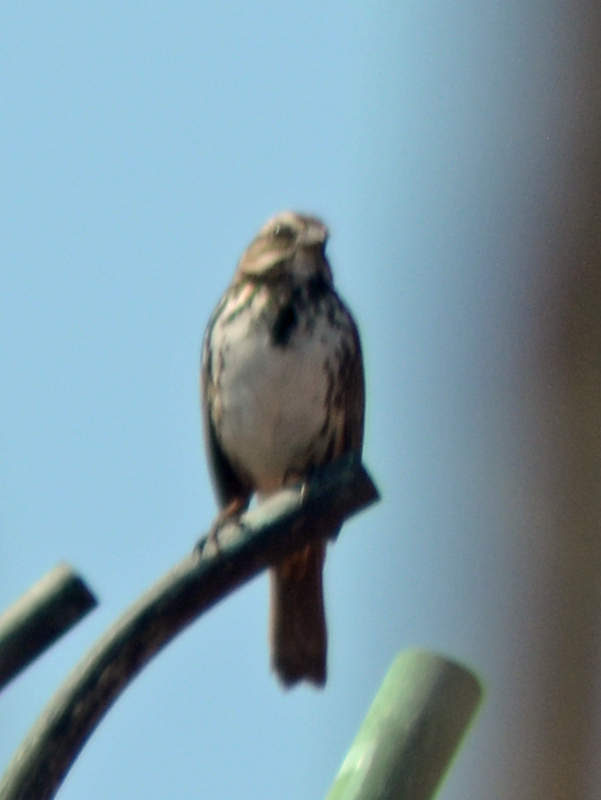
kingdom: Animalia
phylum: Chordata
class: Aves
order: Passeriformes
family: Passerellidae
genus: Melospiza
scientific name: Melospiza melodia
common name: Song sparrow
